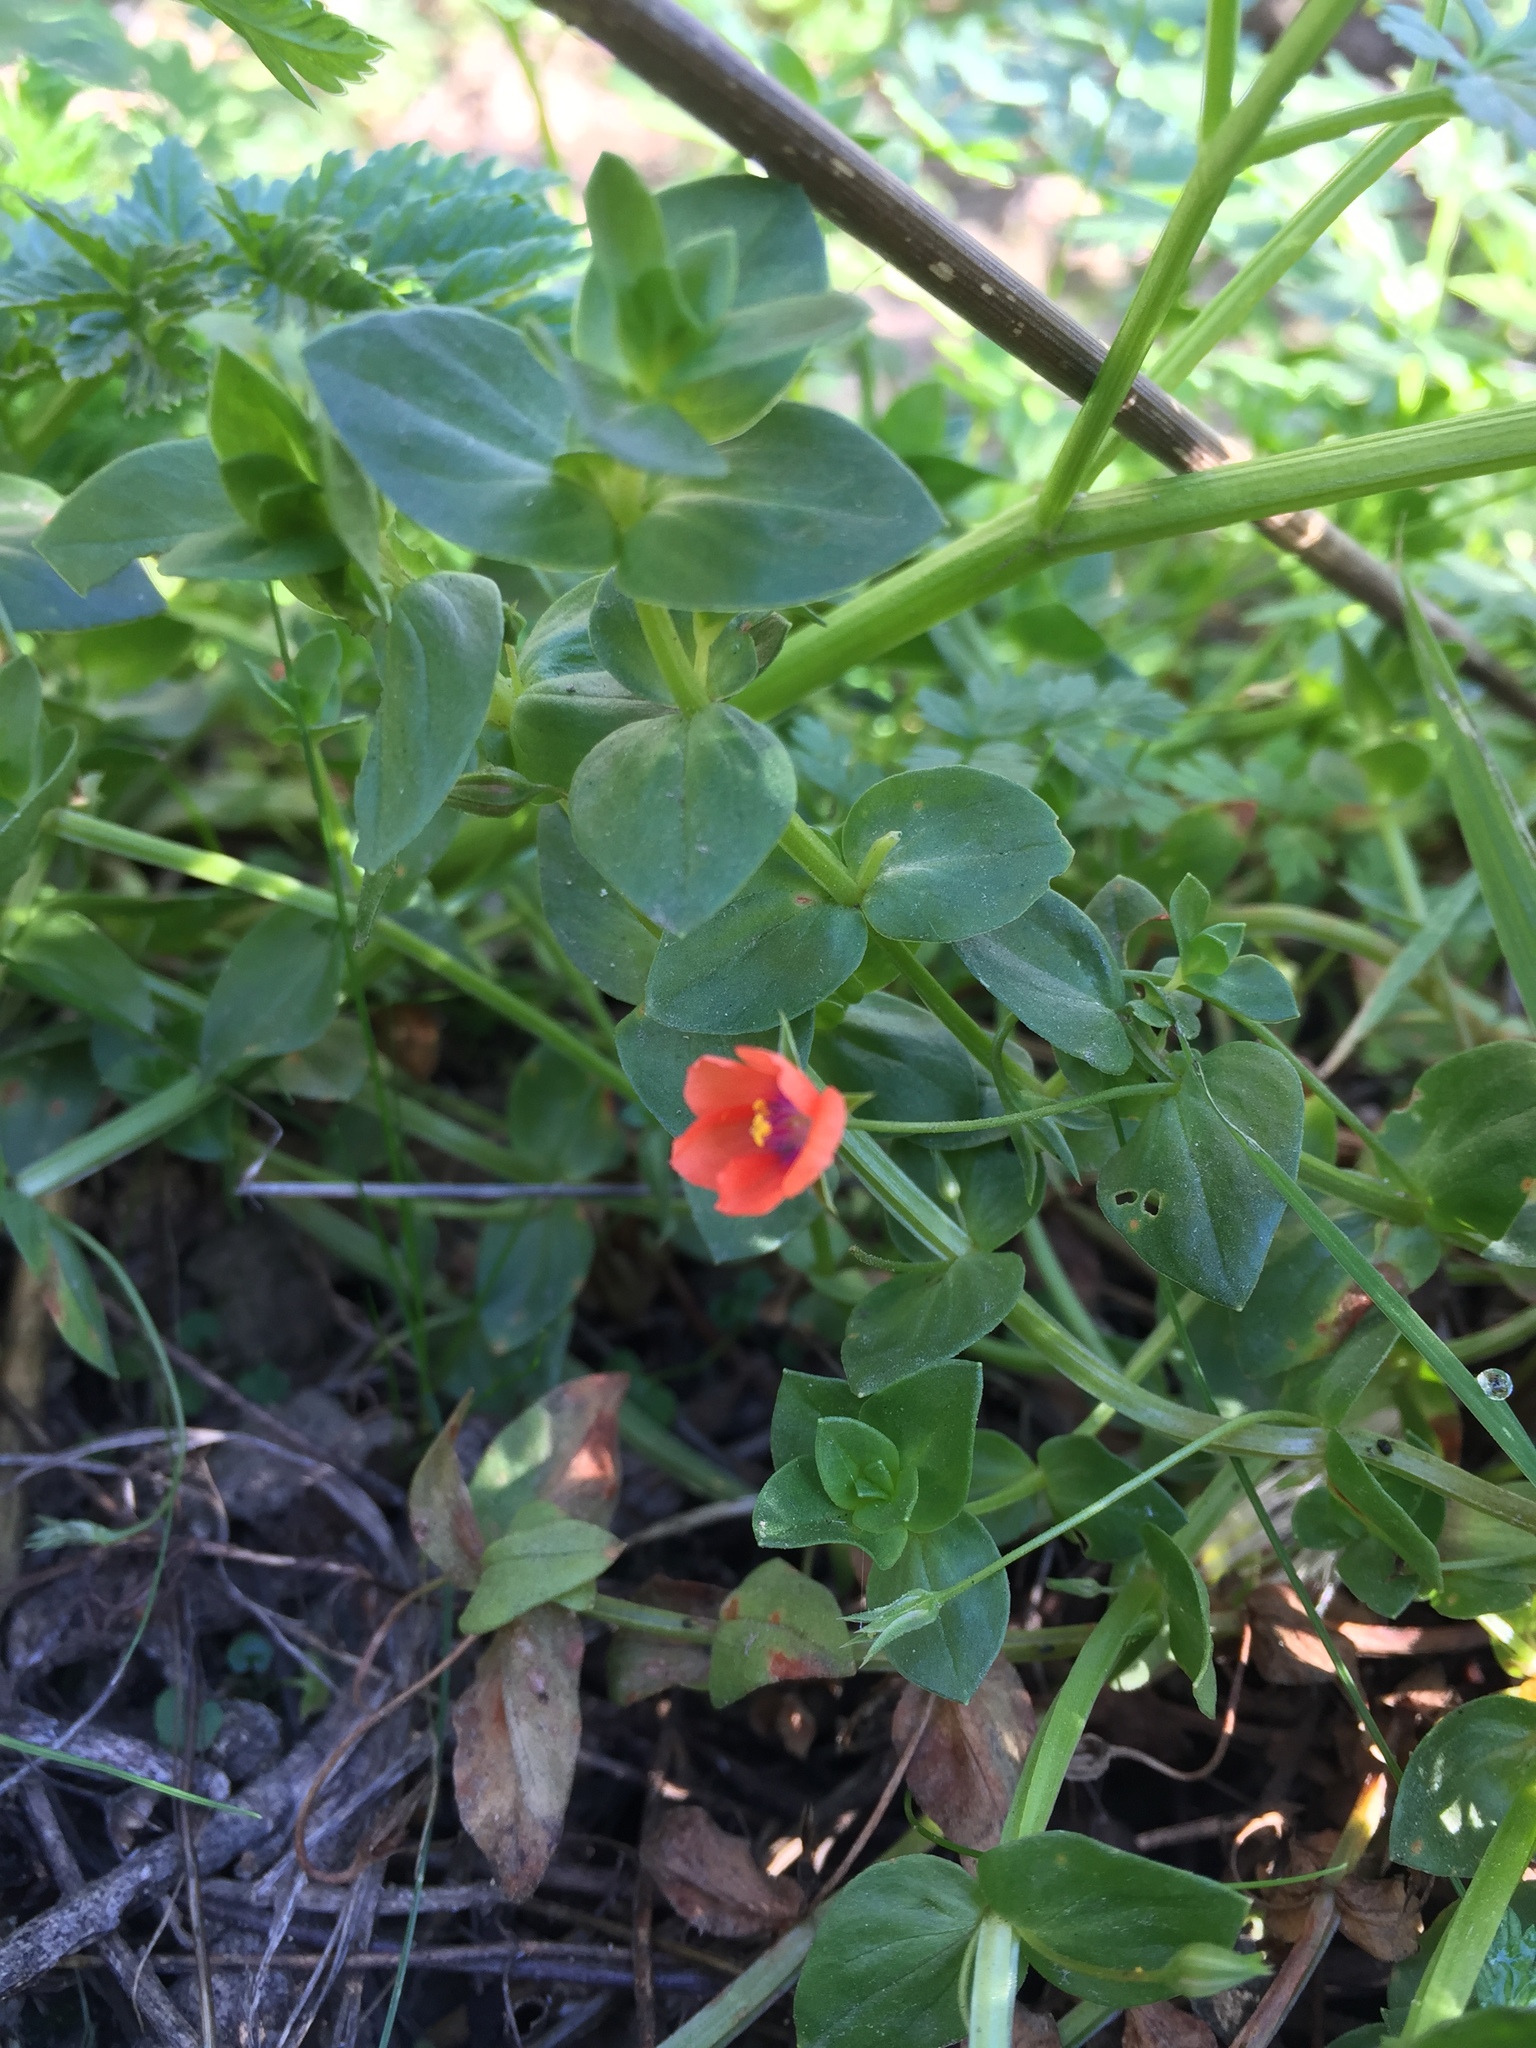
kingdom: Plantae
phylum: Tracheophyta
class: Magnoliopsida
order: Ericales
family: Primulaceae
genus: Lysimachia
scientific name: Lysimachia arvensis
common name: Scarlet pimpernel
